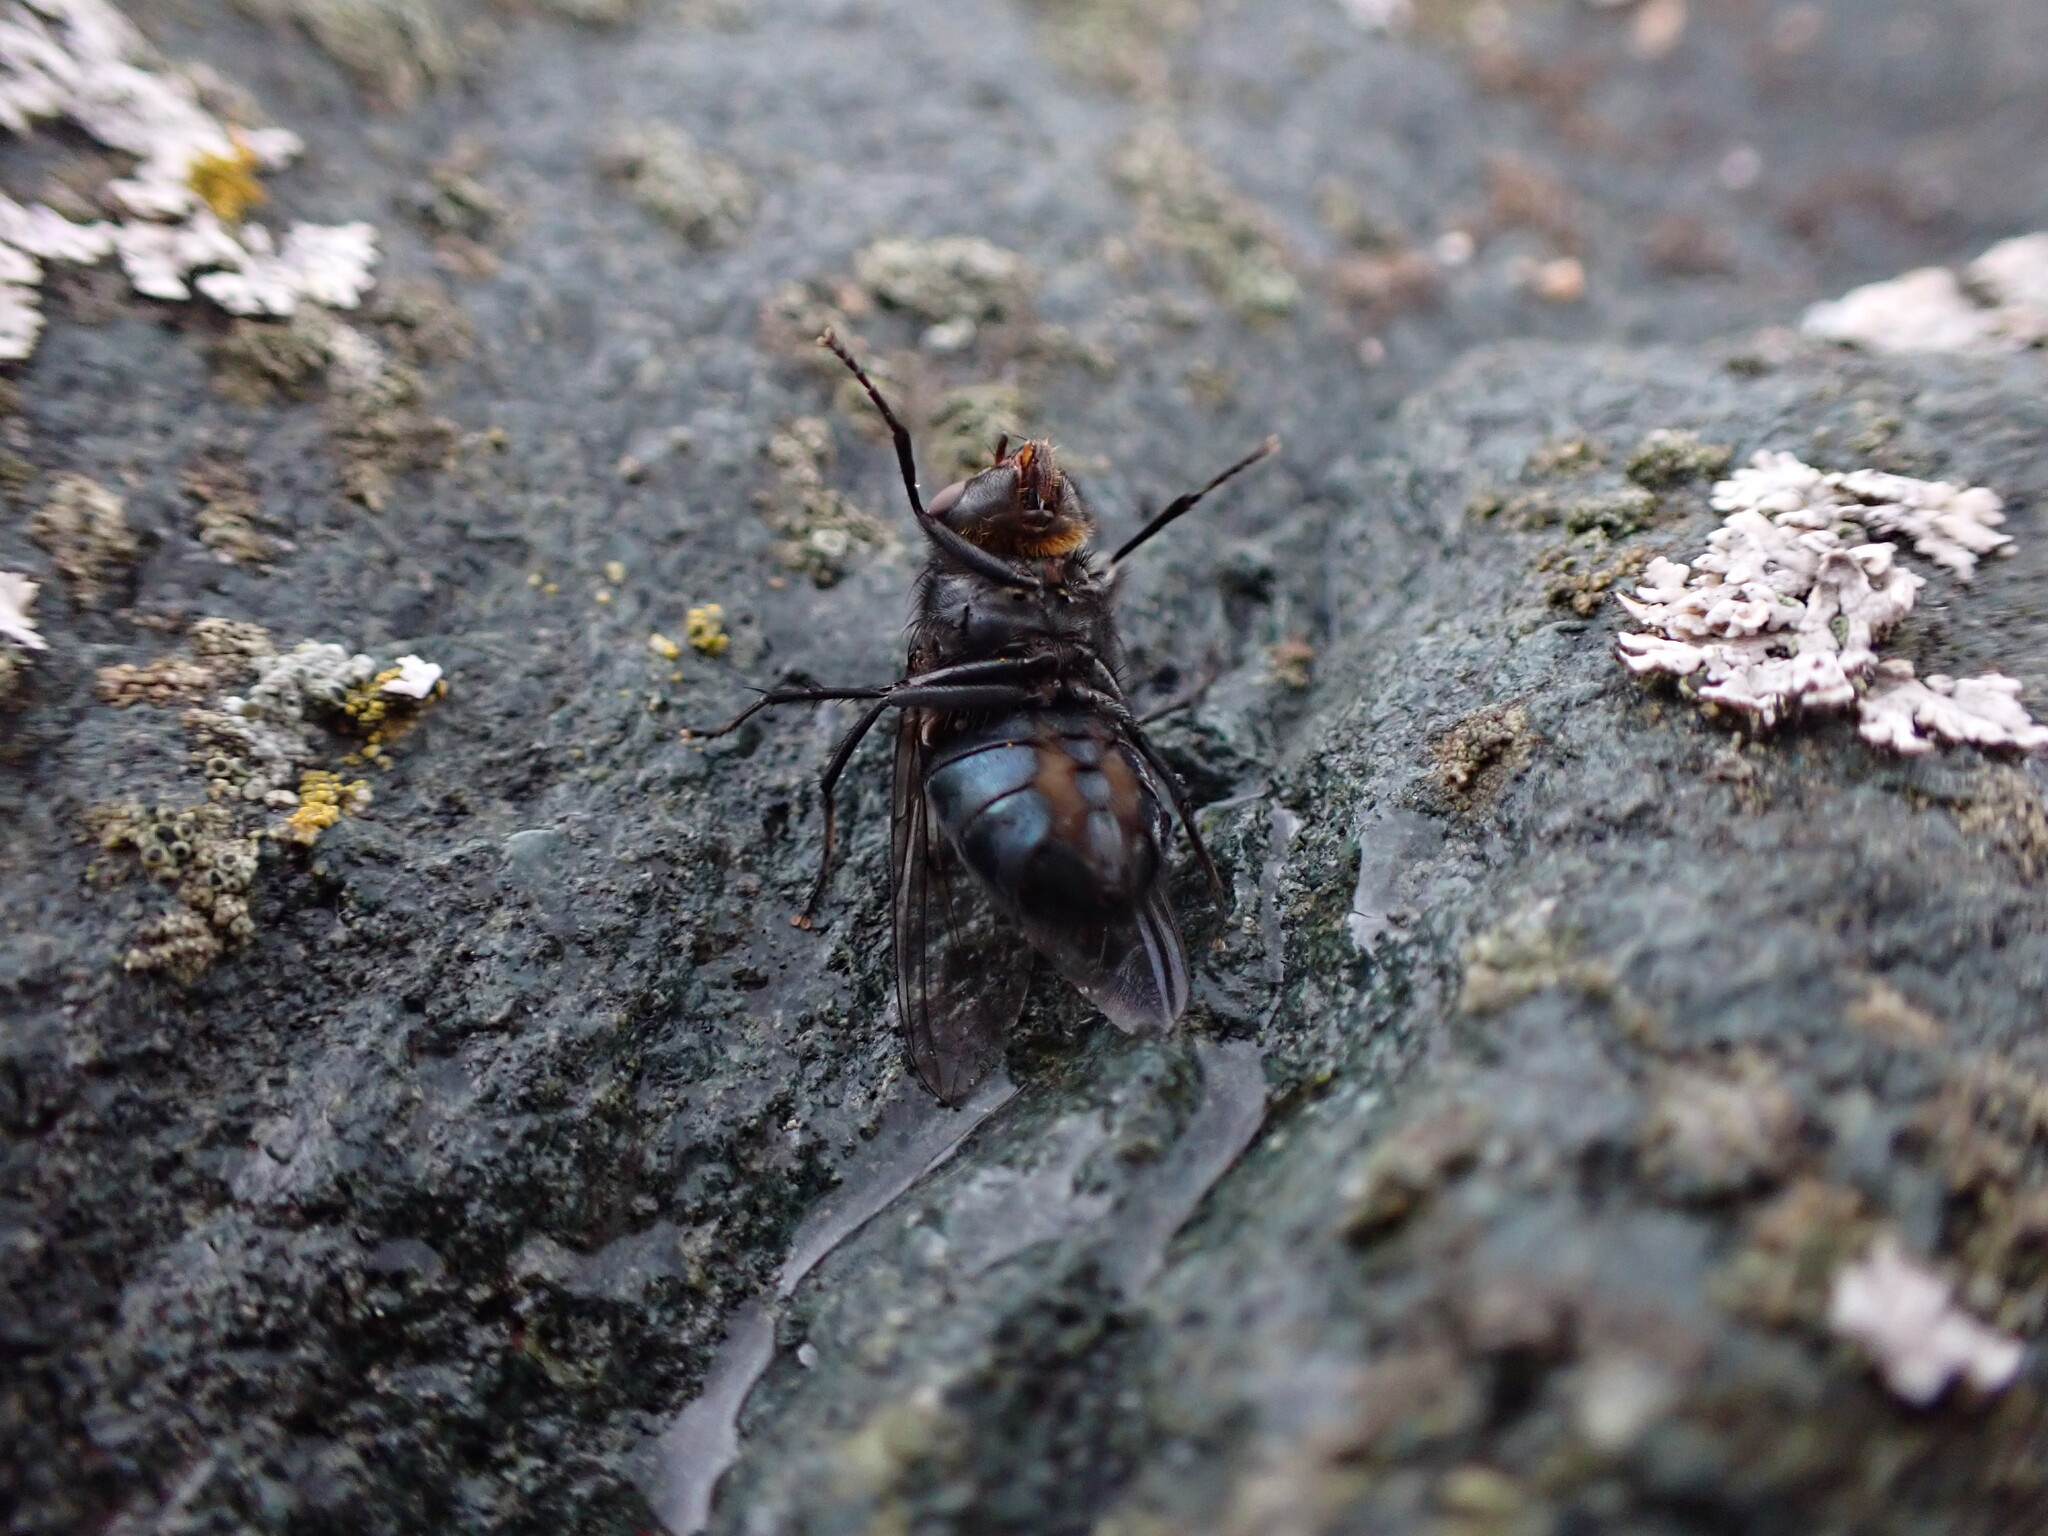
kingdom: Animalia
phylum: Arthropoda
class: Insecta
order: Diptera
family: Calliphoridae
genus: Calliphora
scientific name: Calliphora vomitoria
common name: Blue bottle fly
